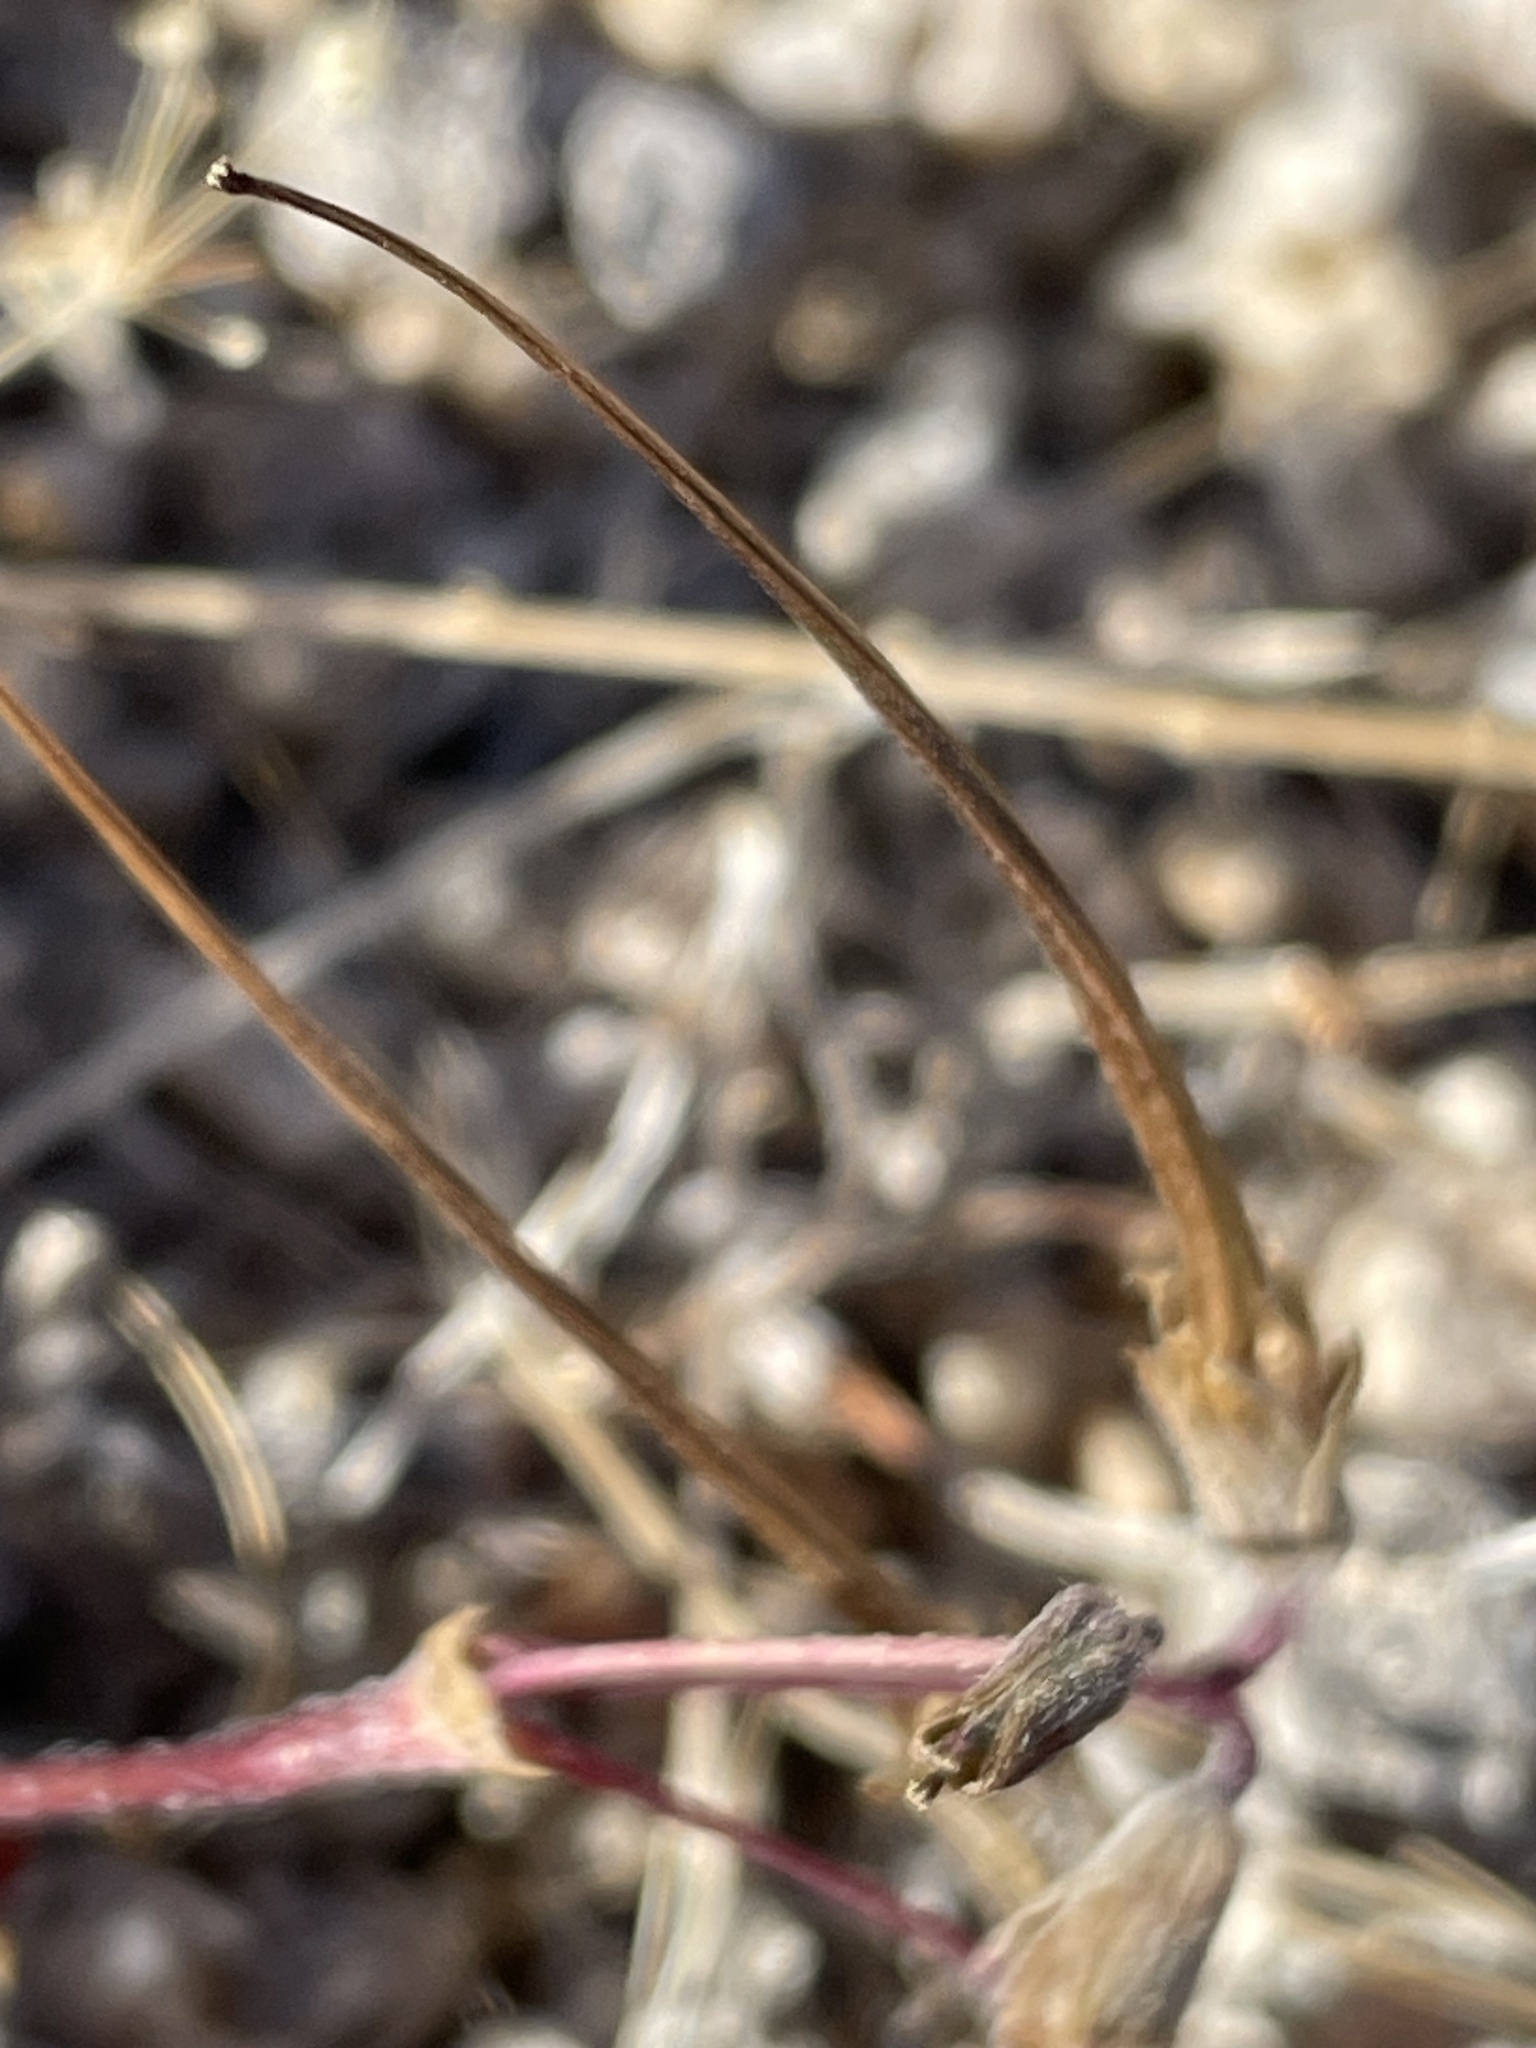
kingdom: Plantae
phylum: Tracheophyta
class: Magnoliopsida
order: Geraniales
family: Geraniaceae
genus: Erodium
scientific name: Erodium cicutarium
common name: Common stork's-bill
